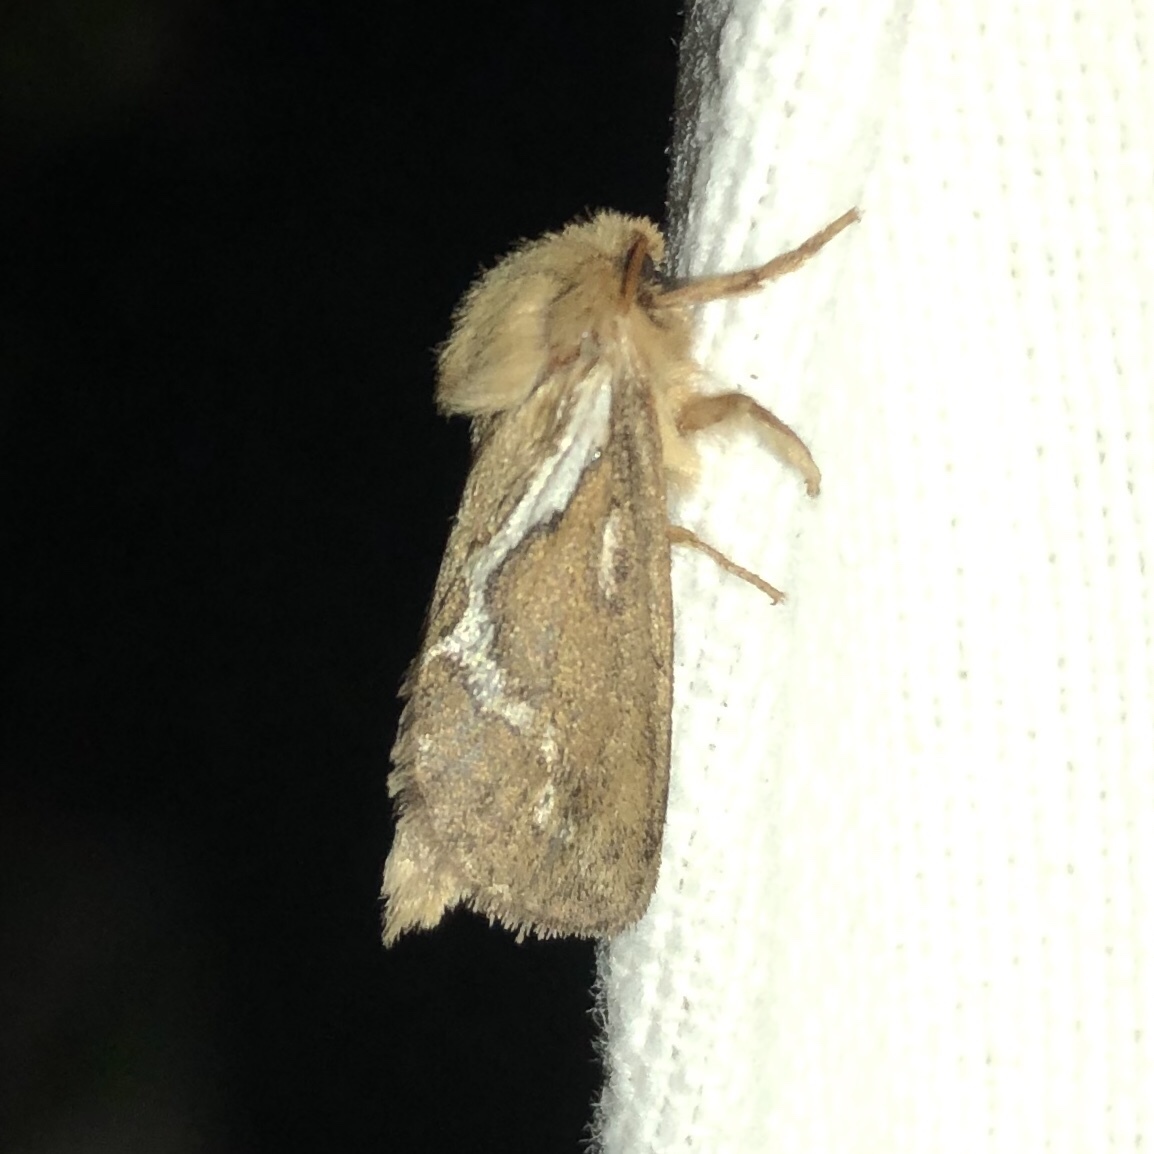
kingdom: Animalia
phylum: Arthropoda
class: Insecta
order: Lepidoptera
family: Hepialidae
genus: Korscheltellus
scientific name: Korscheltellus lupulina
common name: Common swift
